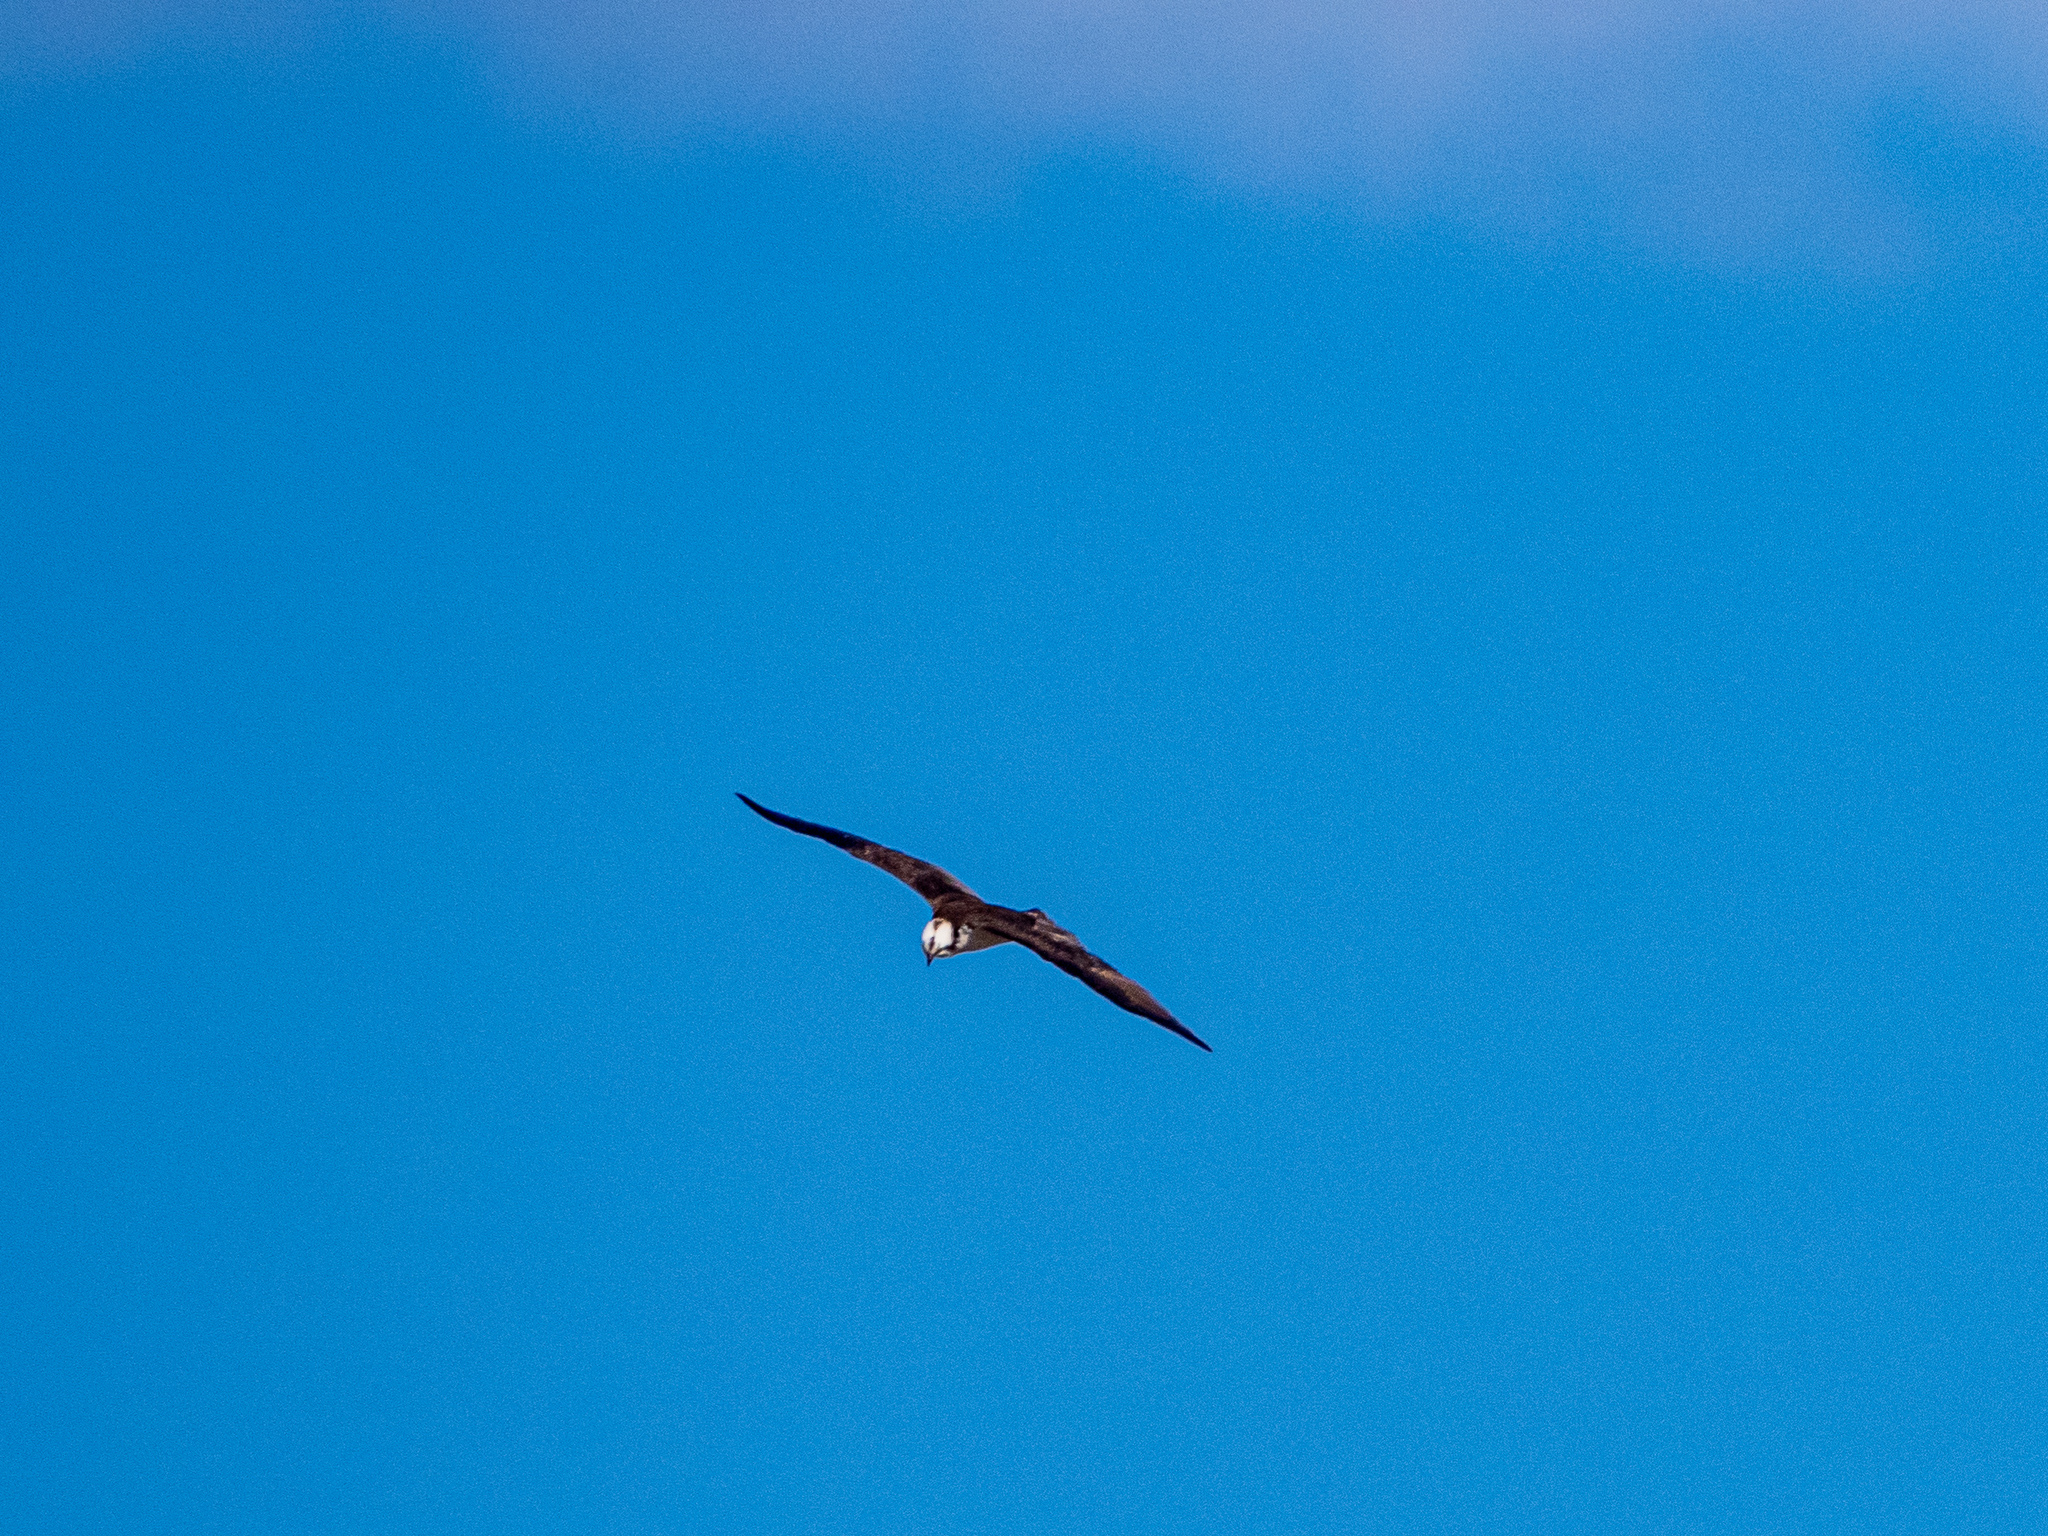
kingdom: Animalia
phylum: Chordata
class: Aves
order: Accipitriformes
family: Pandionidae
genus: Pandion
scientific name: Pandion haliaetus
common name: Osprey
